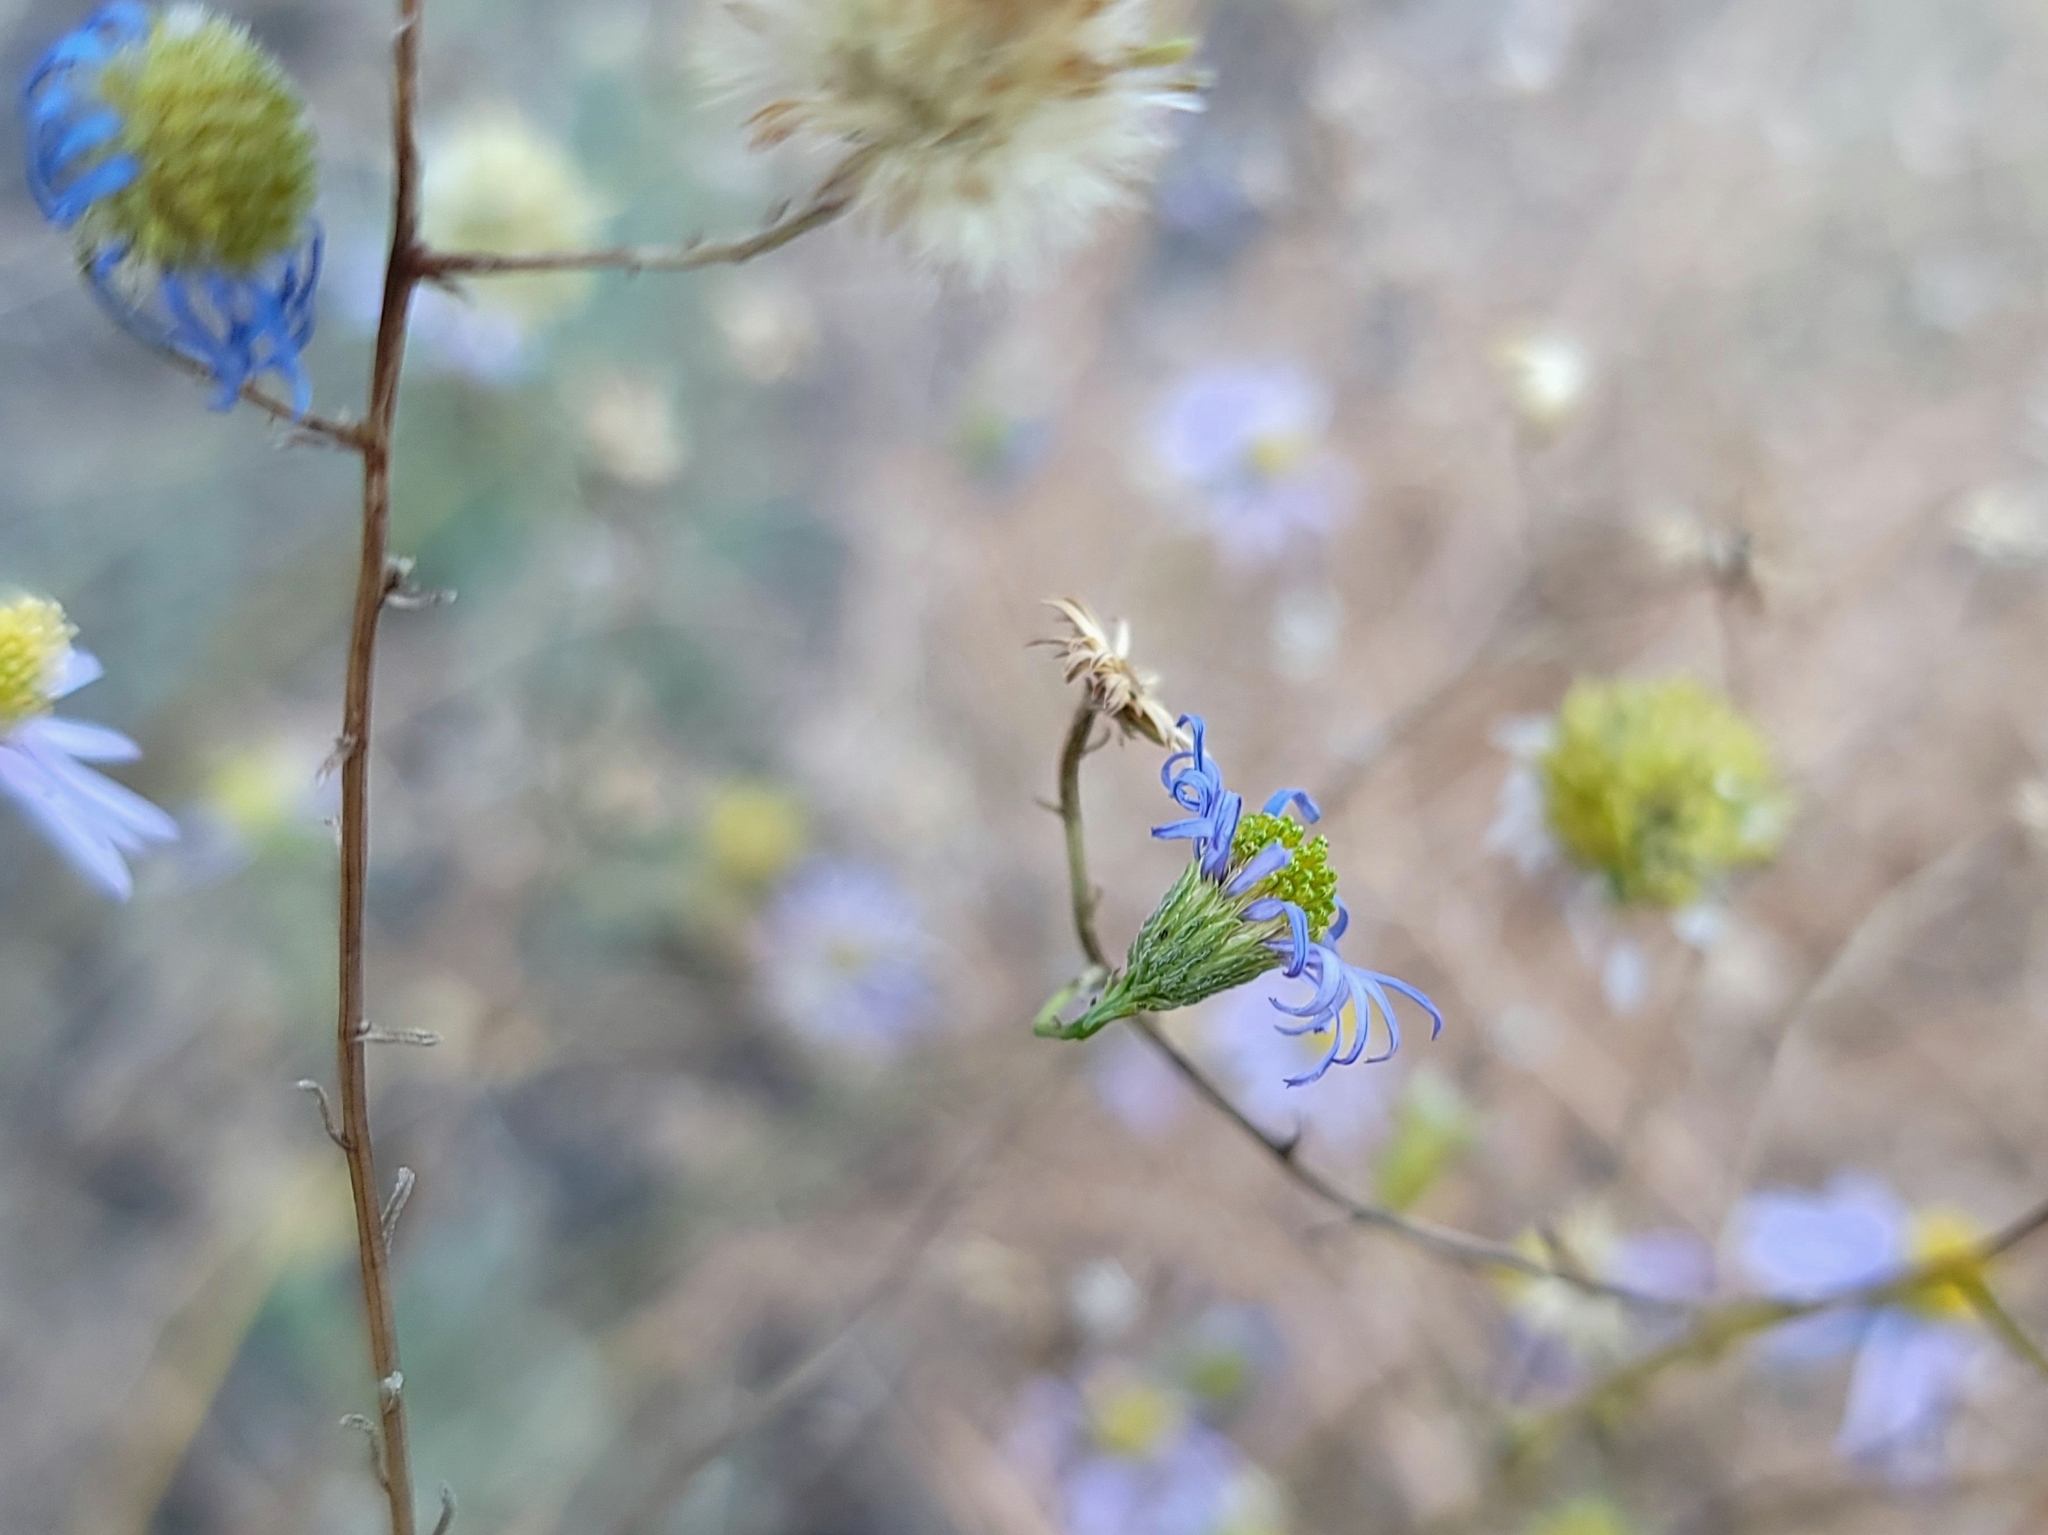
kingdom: Plantae
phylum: Tracheophyta
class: Magnoliopsida
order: Asterales
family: Asteraceae
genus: Erigeron
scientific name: Erigeron foliosus
